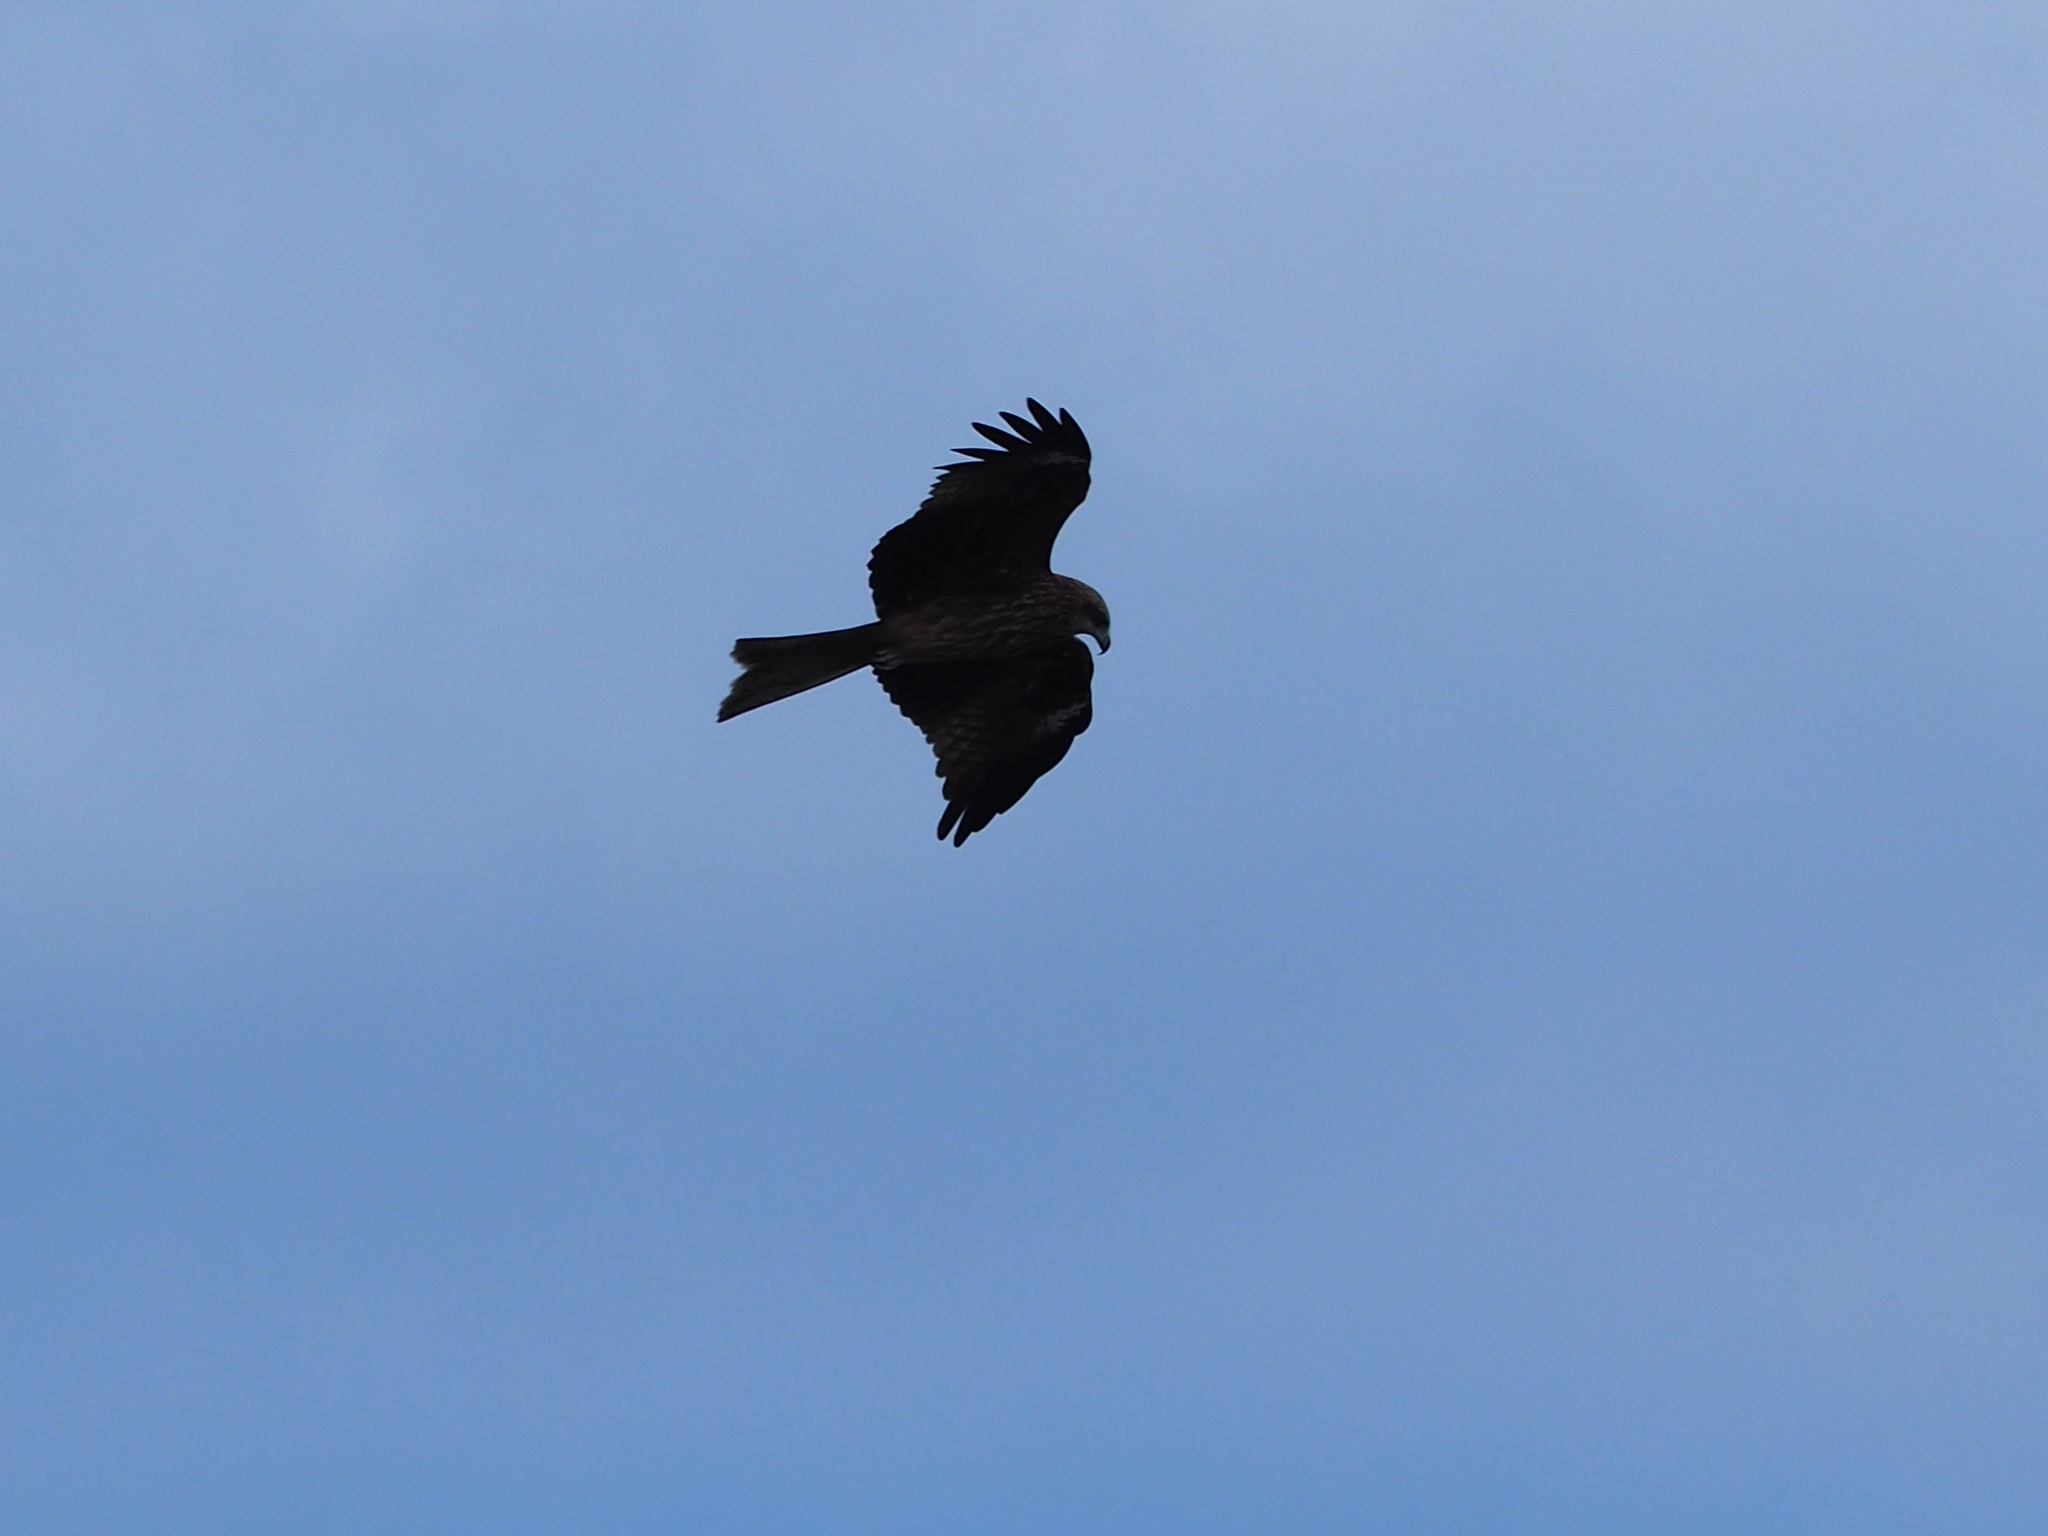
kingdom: Animalia
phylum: Chordata
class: Aves
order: Accipitriformes
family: Accipitridae
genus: Milvus
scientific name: Milvus migrans
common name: Black kite
